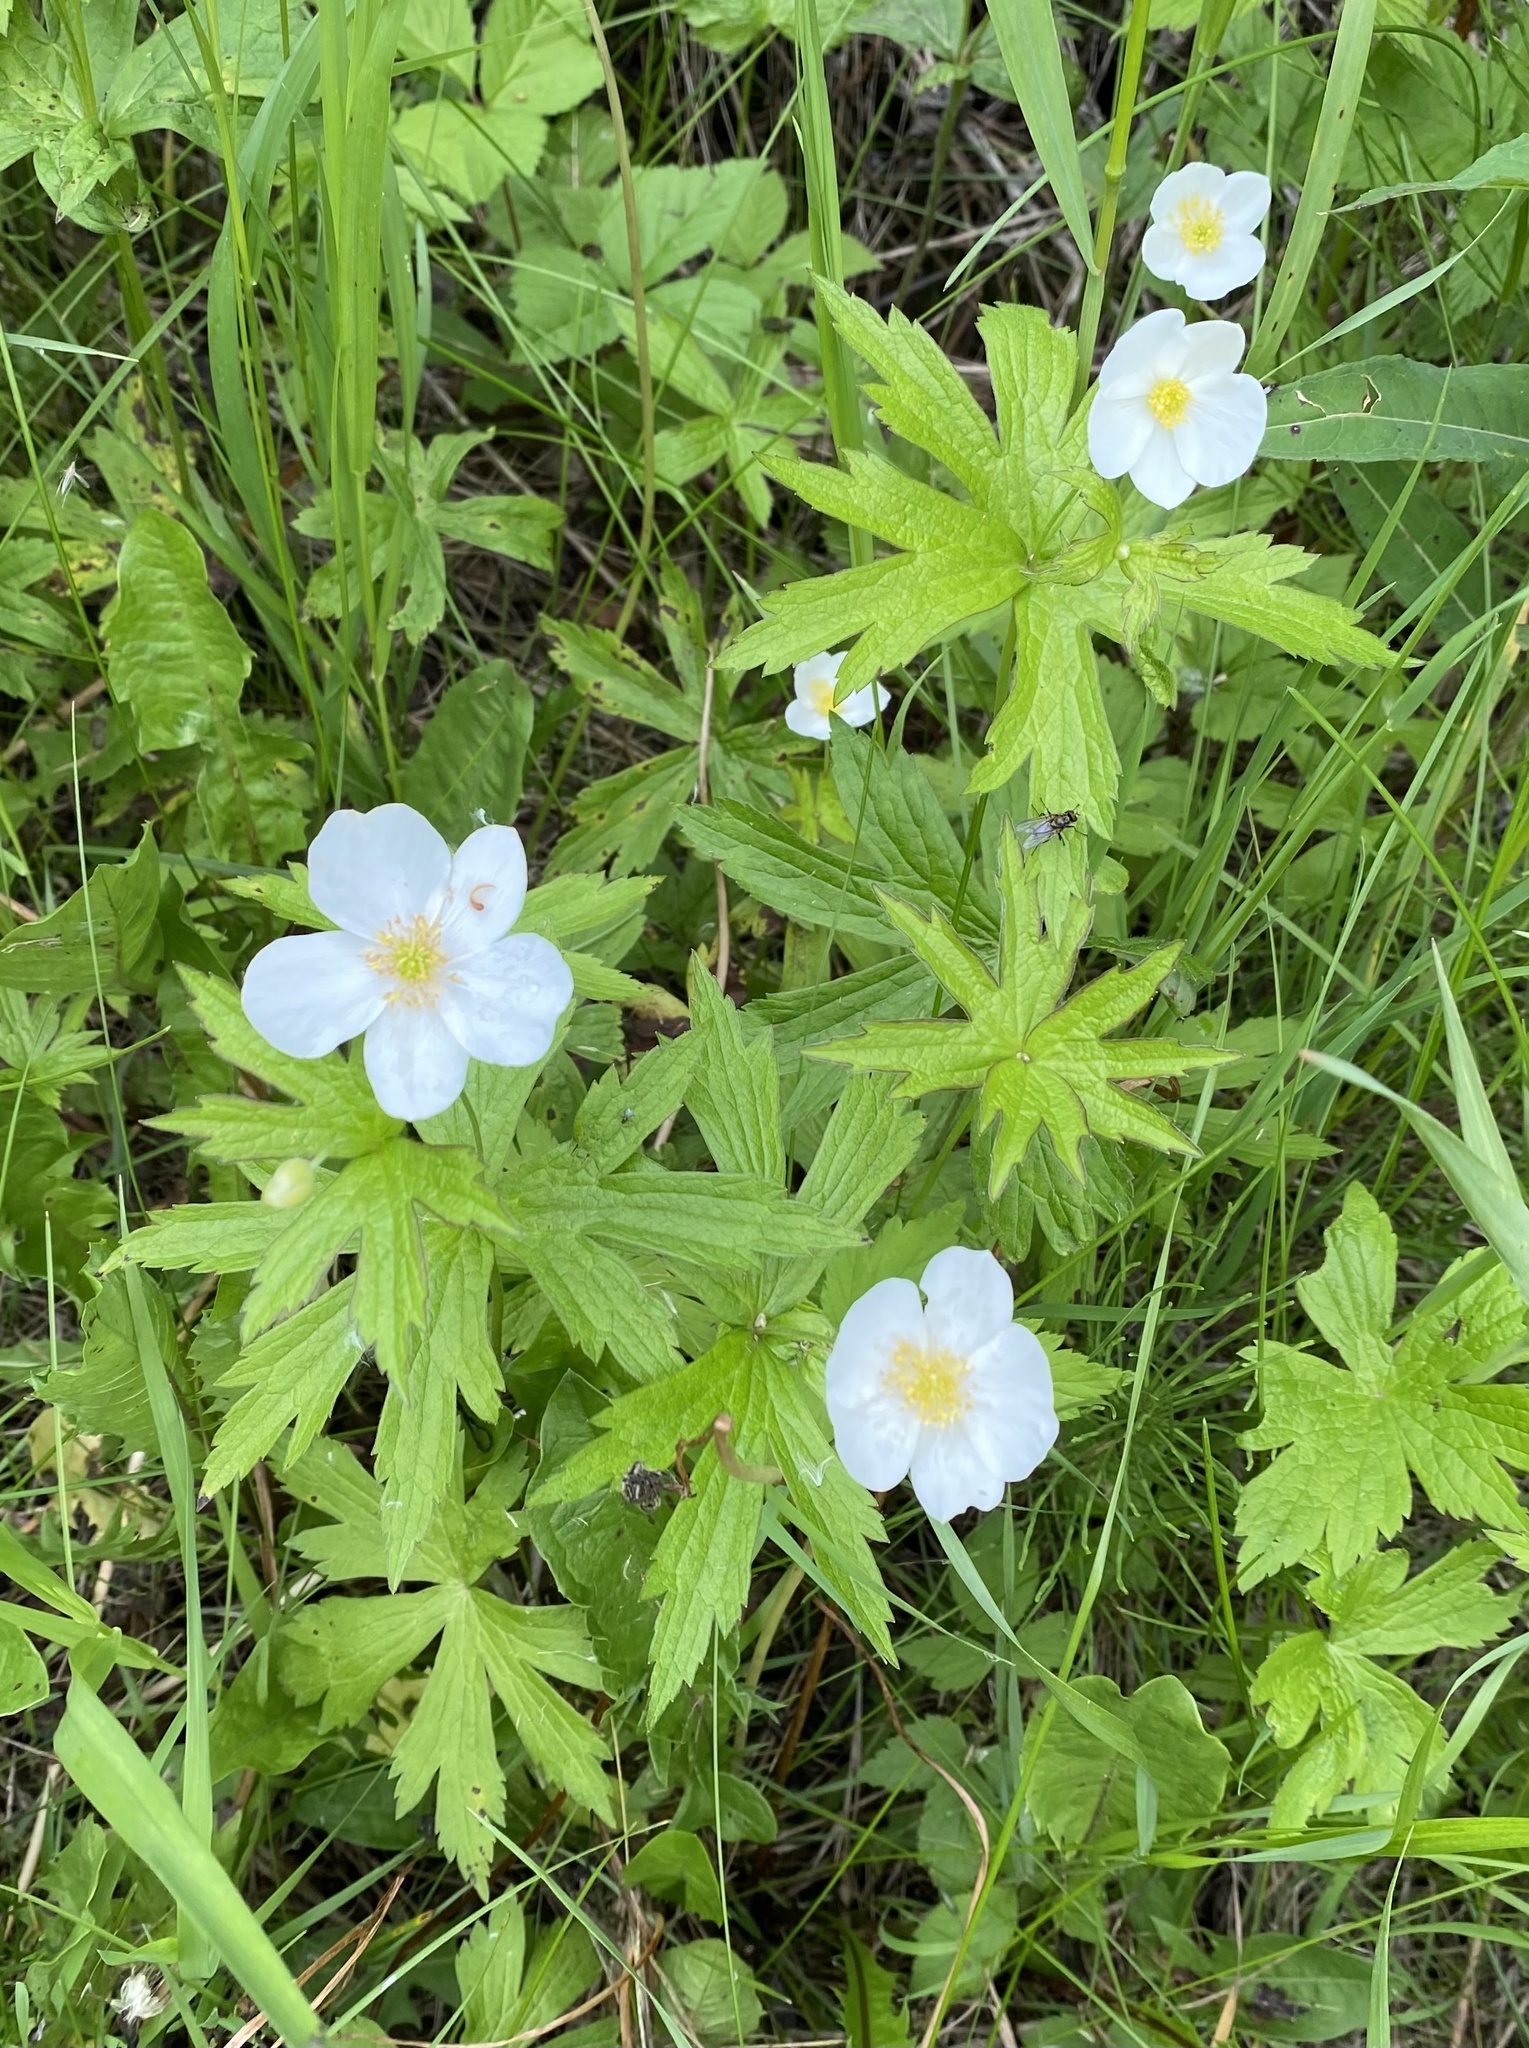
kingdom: Plantae
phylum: Tracheophyta
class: Magnoliopsida
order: Ranunculales
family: Ranunculaceae
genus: Anemonastrum
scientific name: Anemonastrum canadense
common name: Canada anemone
